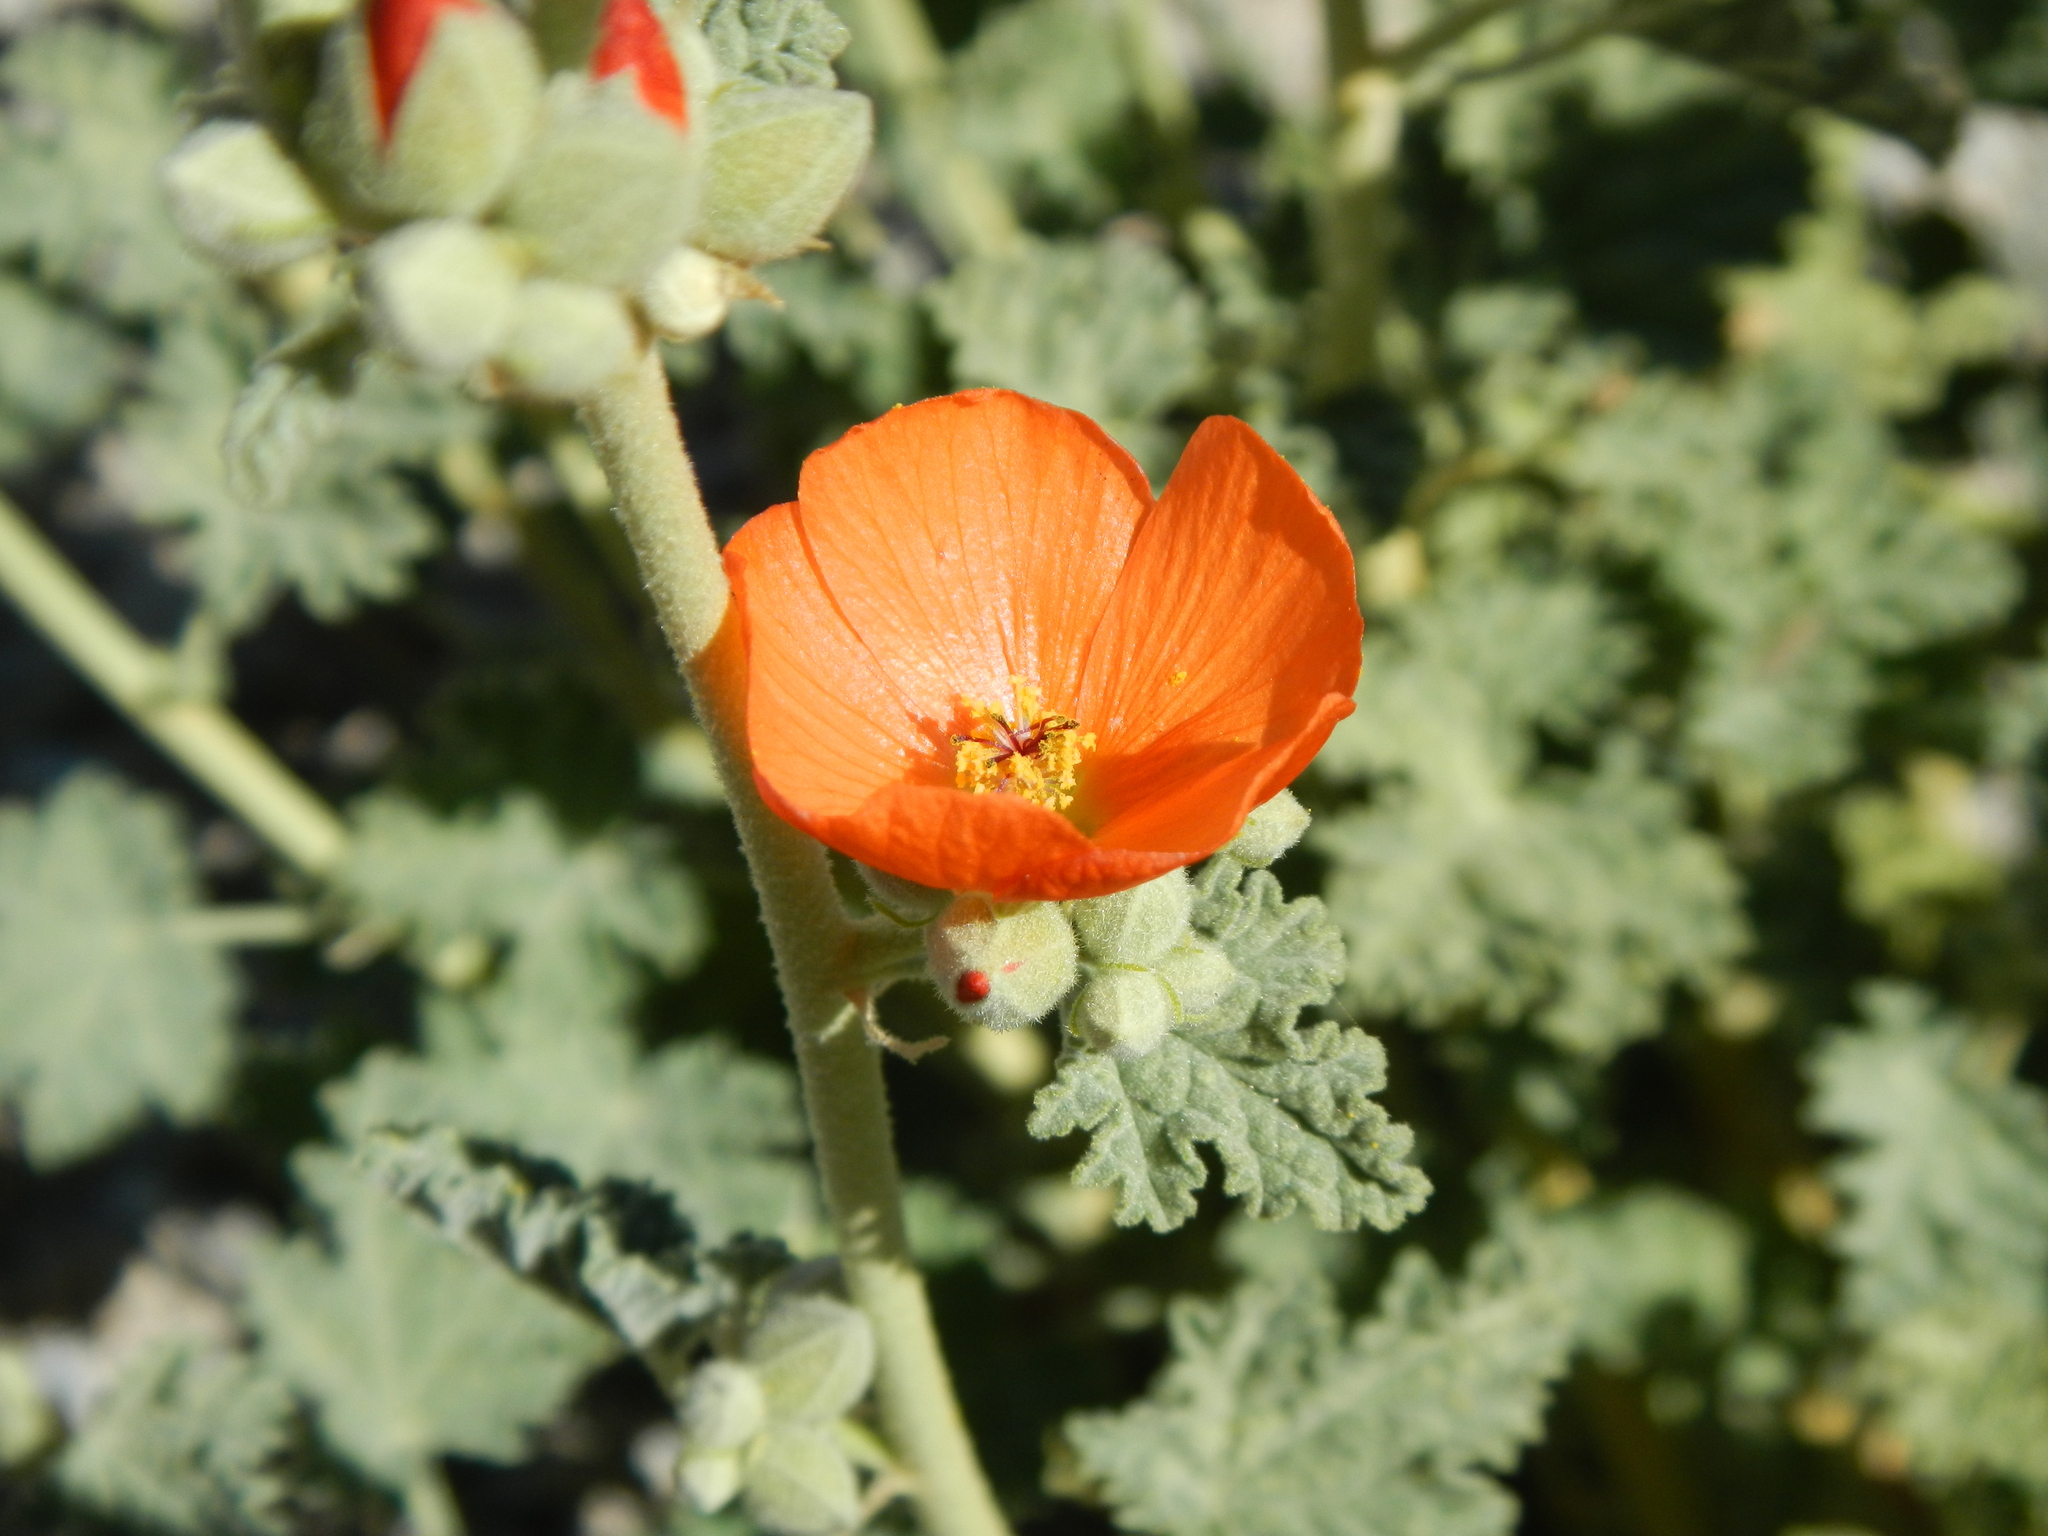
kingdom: Plantae
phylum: Tracheophyta
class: Magnoliopsida
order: Malvales
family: Malvaceae
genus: Sphaeralcea
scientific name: Sphaeralcea ambigua
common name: Apricot globe-mallow
